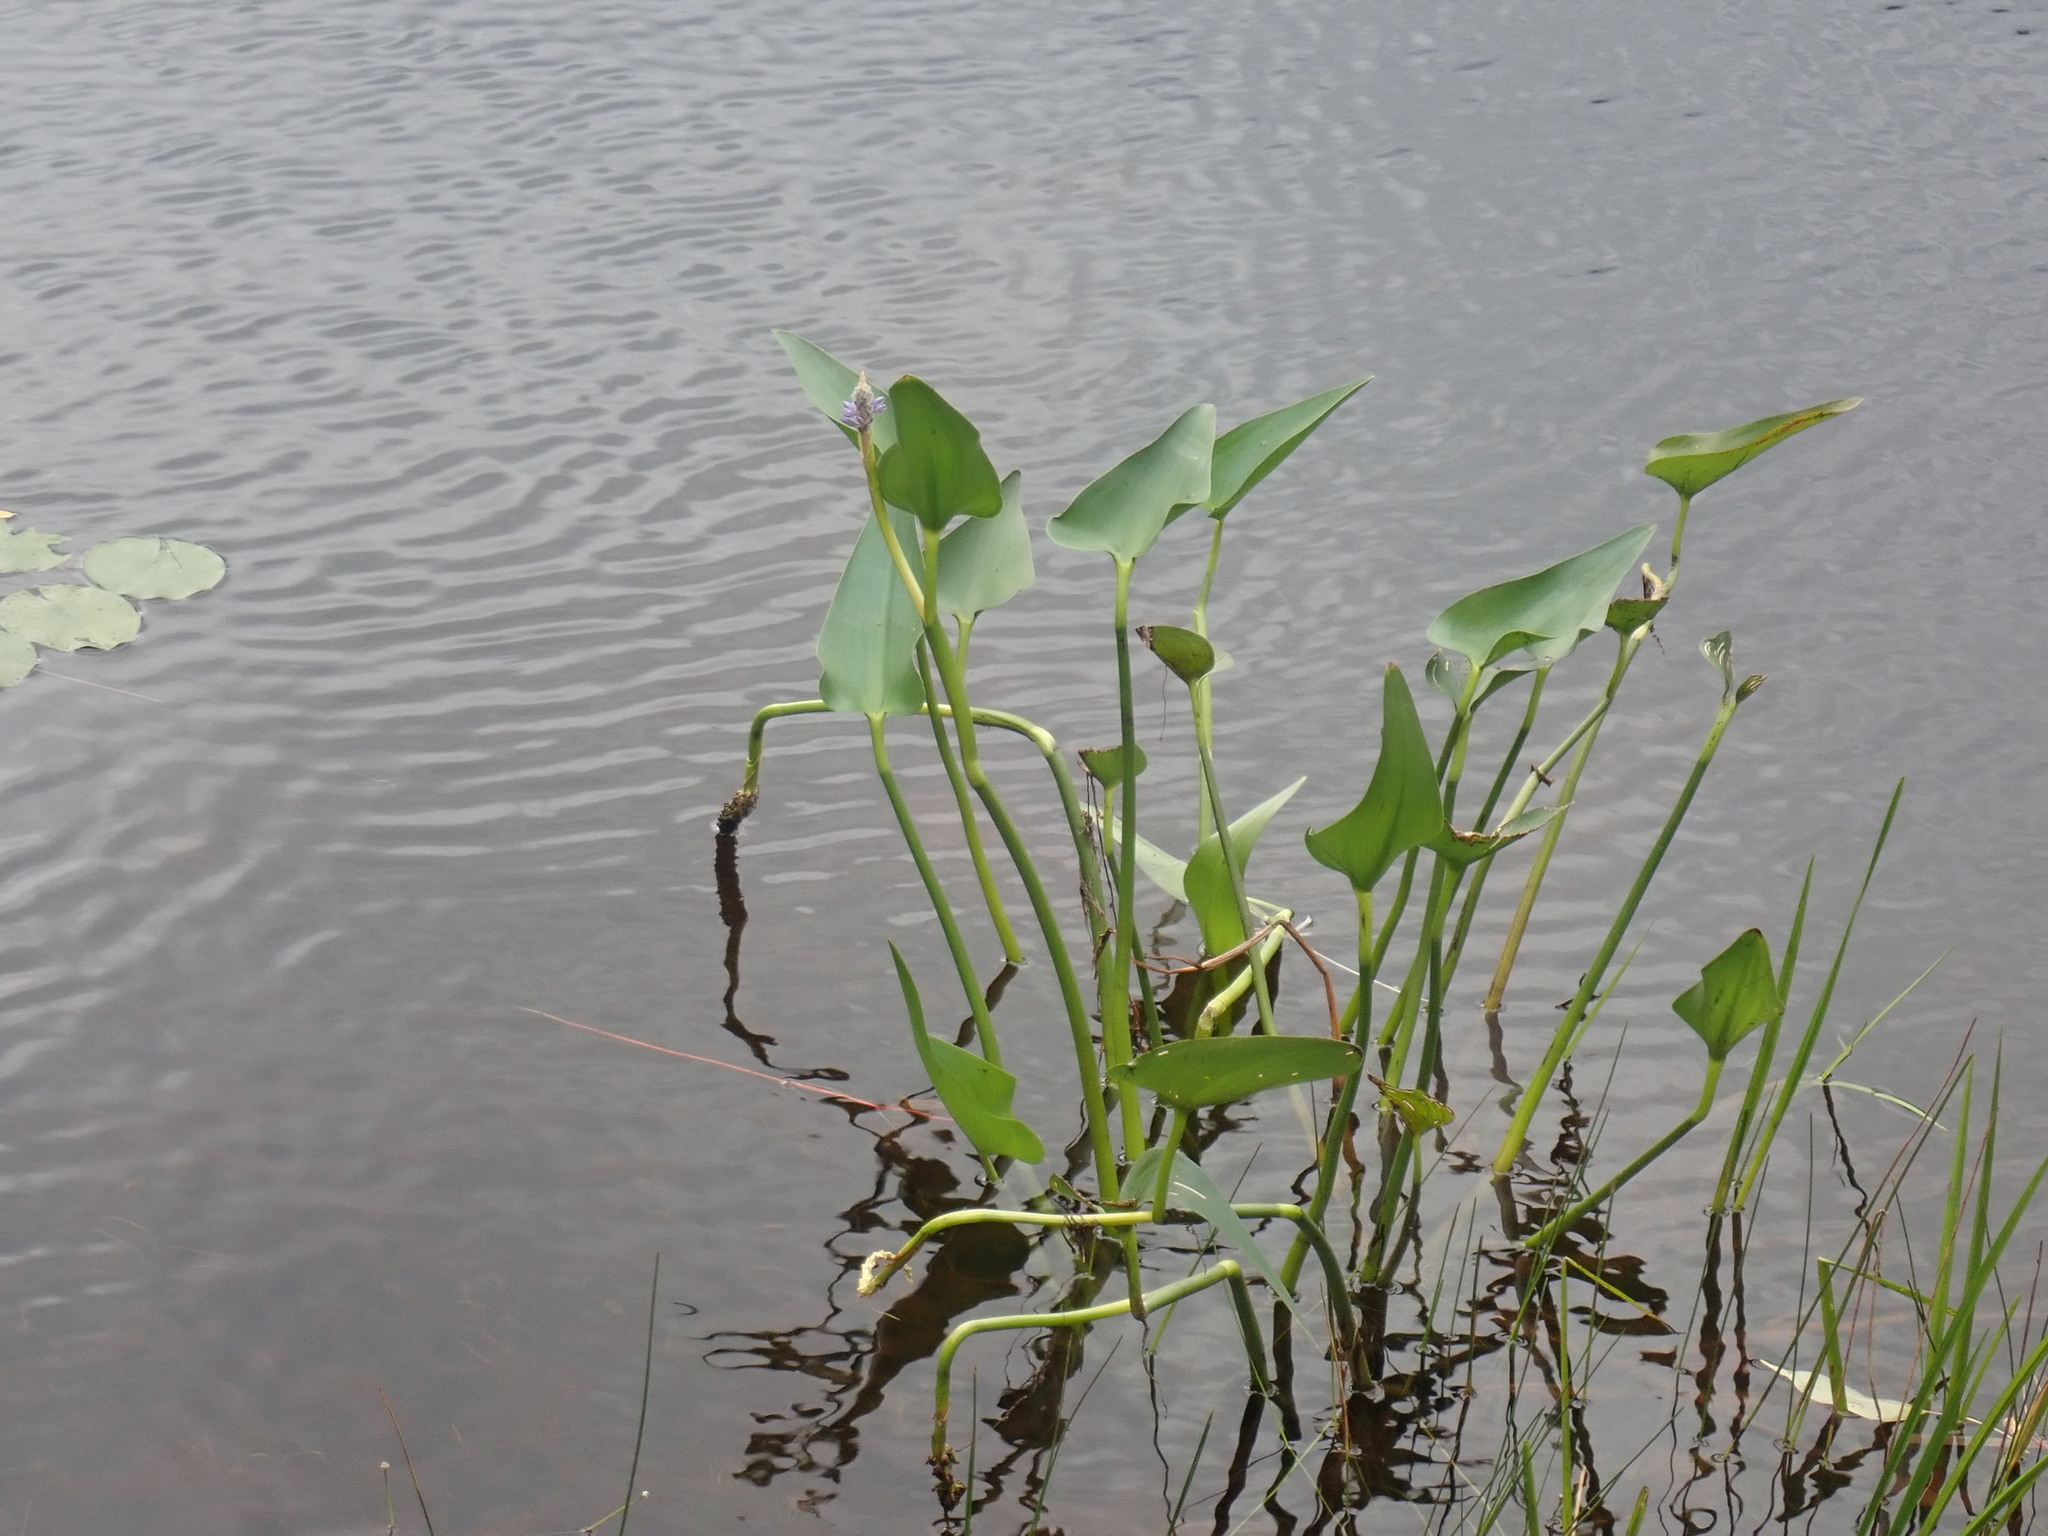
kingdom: Plantae
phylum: Tracheophyta
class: Liliopsida
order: Commelinales
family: Pontederiaceae
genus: Pontederia
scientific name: Pontederia cordata
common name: Pickerelweed
